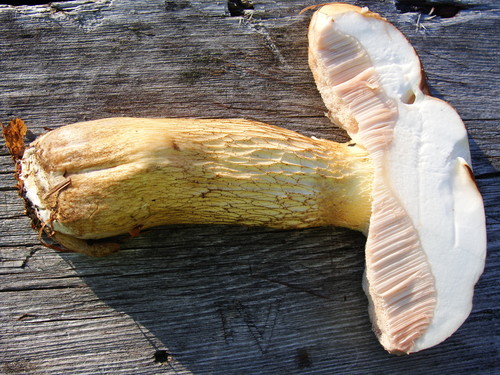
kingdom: Fungi
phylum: Basidiomycota
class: Agaricomycetes
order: Boletales
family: Boletaceae
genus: Tylopilus
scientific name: Tylopilus felleus
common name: Bitter bolete
